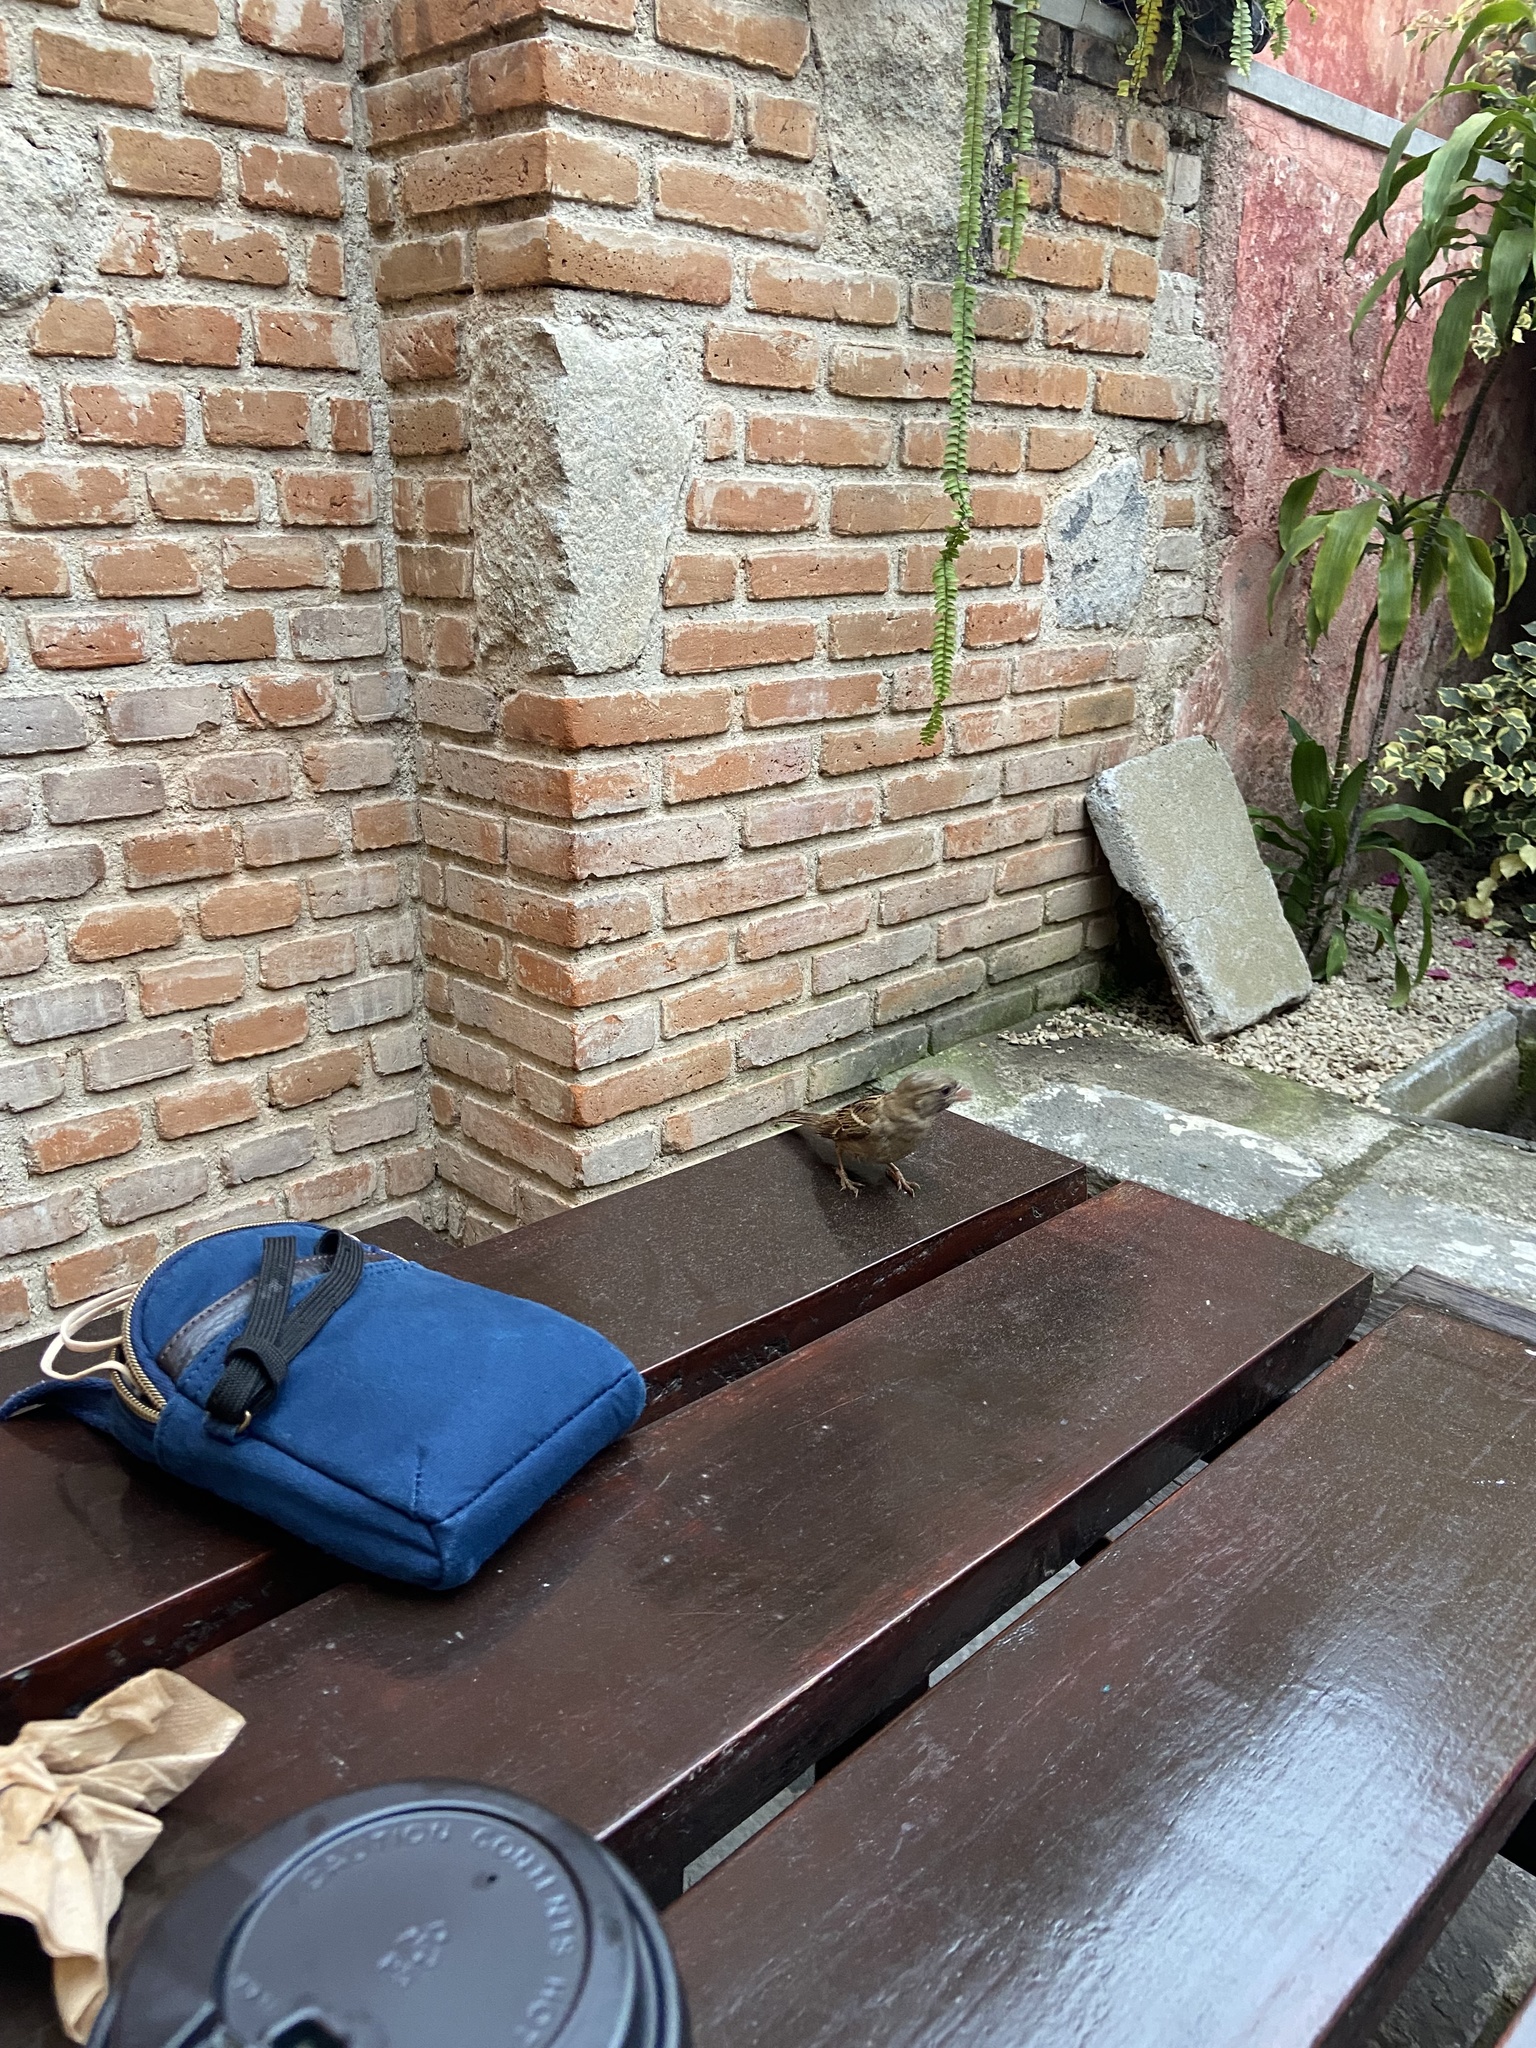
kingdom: Animalia
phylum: Chordata
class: Aves
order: Passeriformes
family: Passeridae
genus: Passer
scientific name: Passer domesticus
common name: House sparrow
